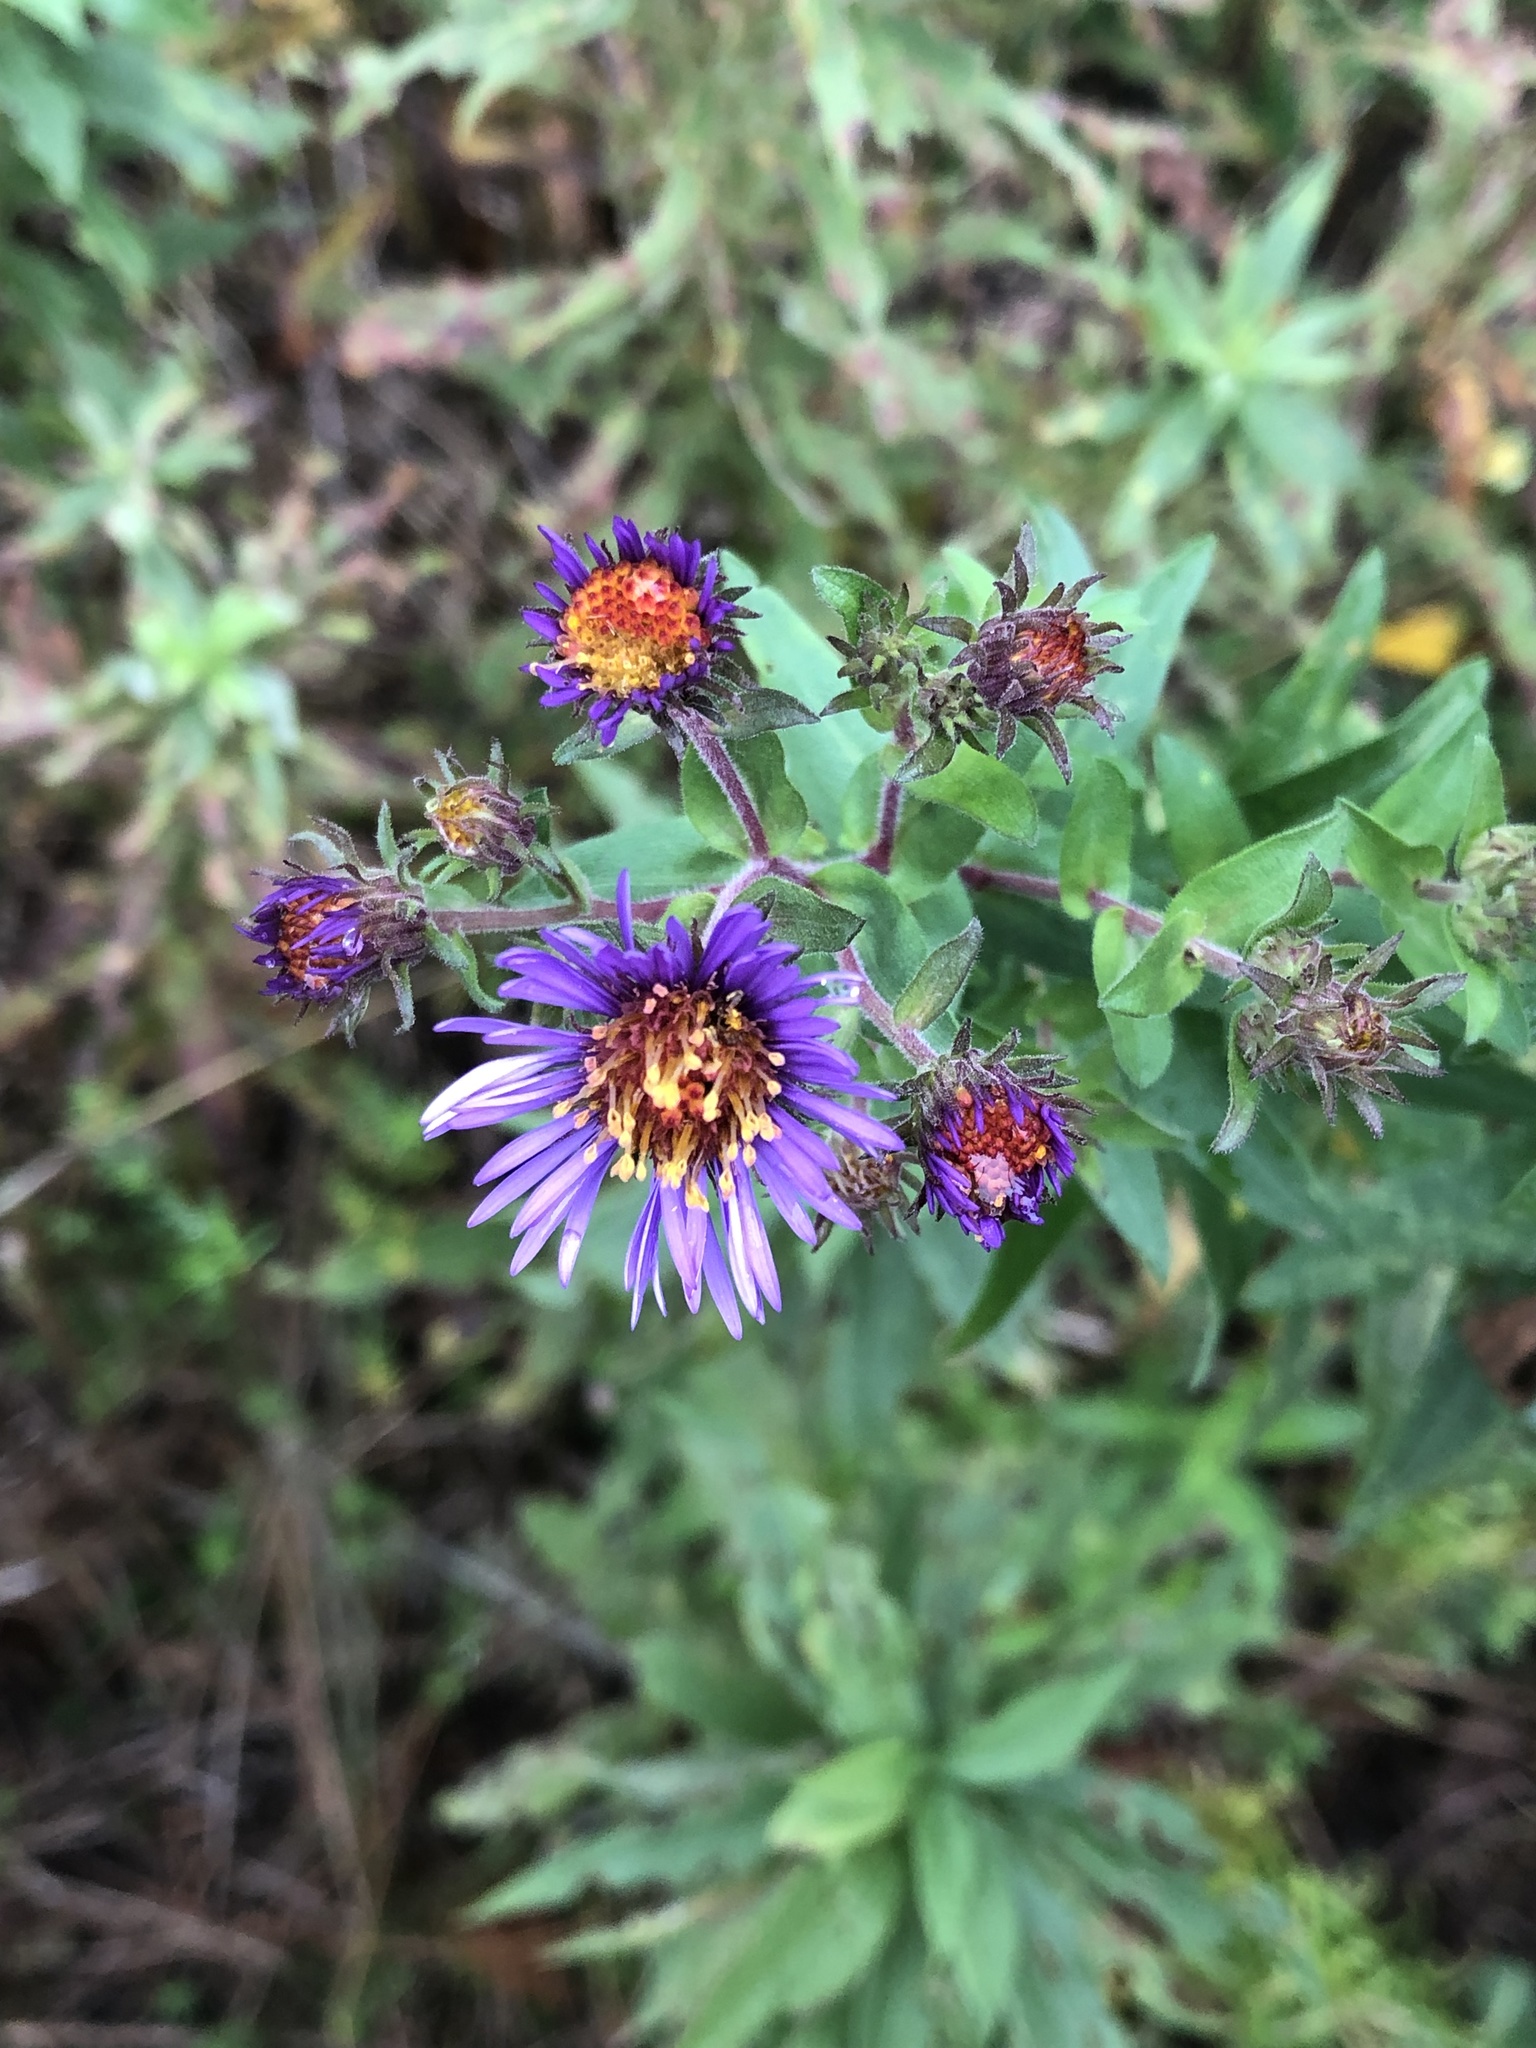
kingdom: Plantae
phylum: Tracheophyta
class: Magnoliopsida
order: Asterales
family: Asteraceae
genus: Symphyotrichum
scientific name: Symphyotrichum novae-angliae
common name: Michaelmas daisy
